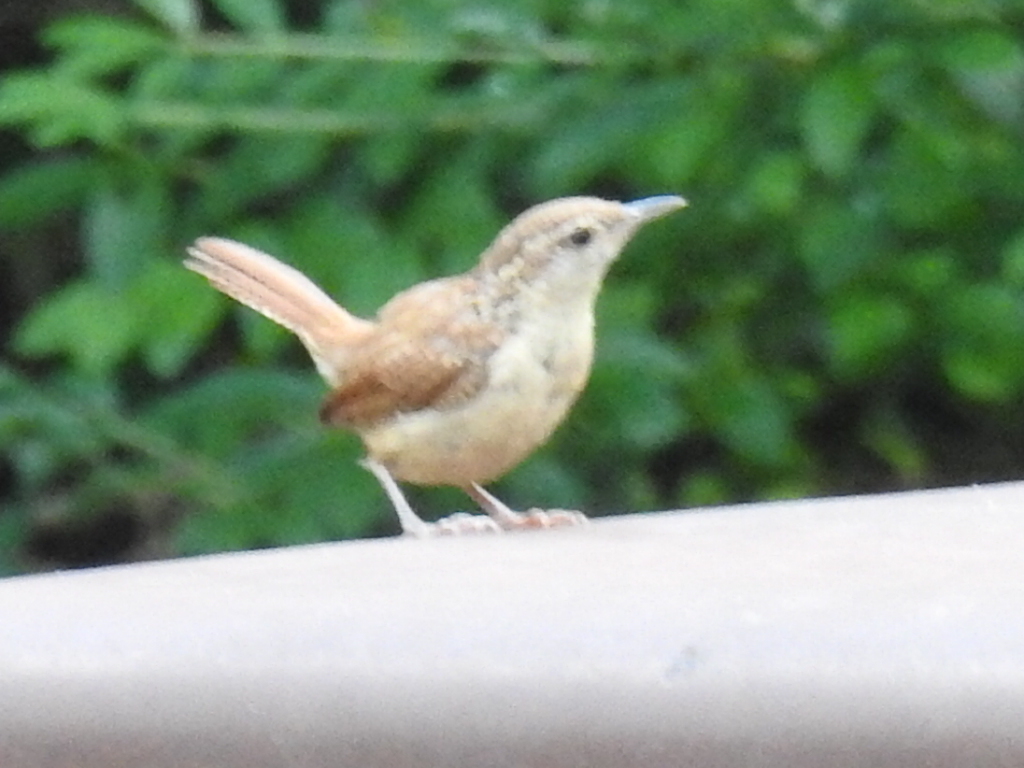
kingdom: Animalia
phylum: Chordata
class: Aves
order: Passeriformes
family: Troglodytidae
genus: Thryothorus
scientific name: Thryothorus ludovicianus
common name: Carolina wren
